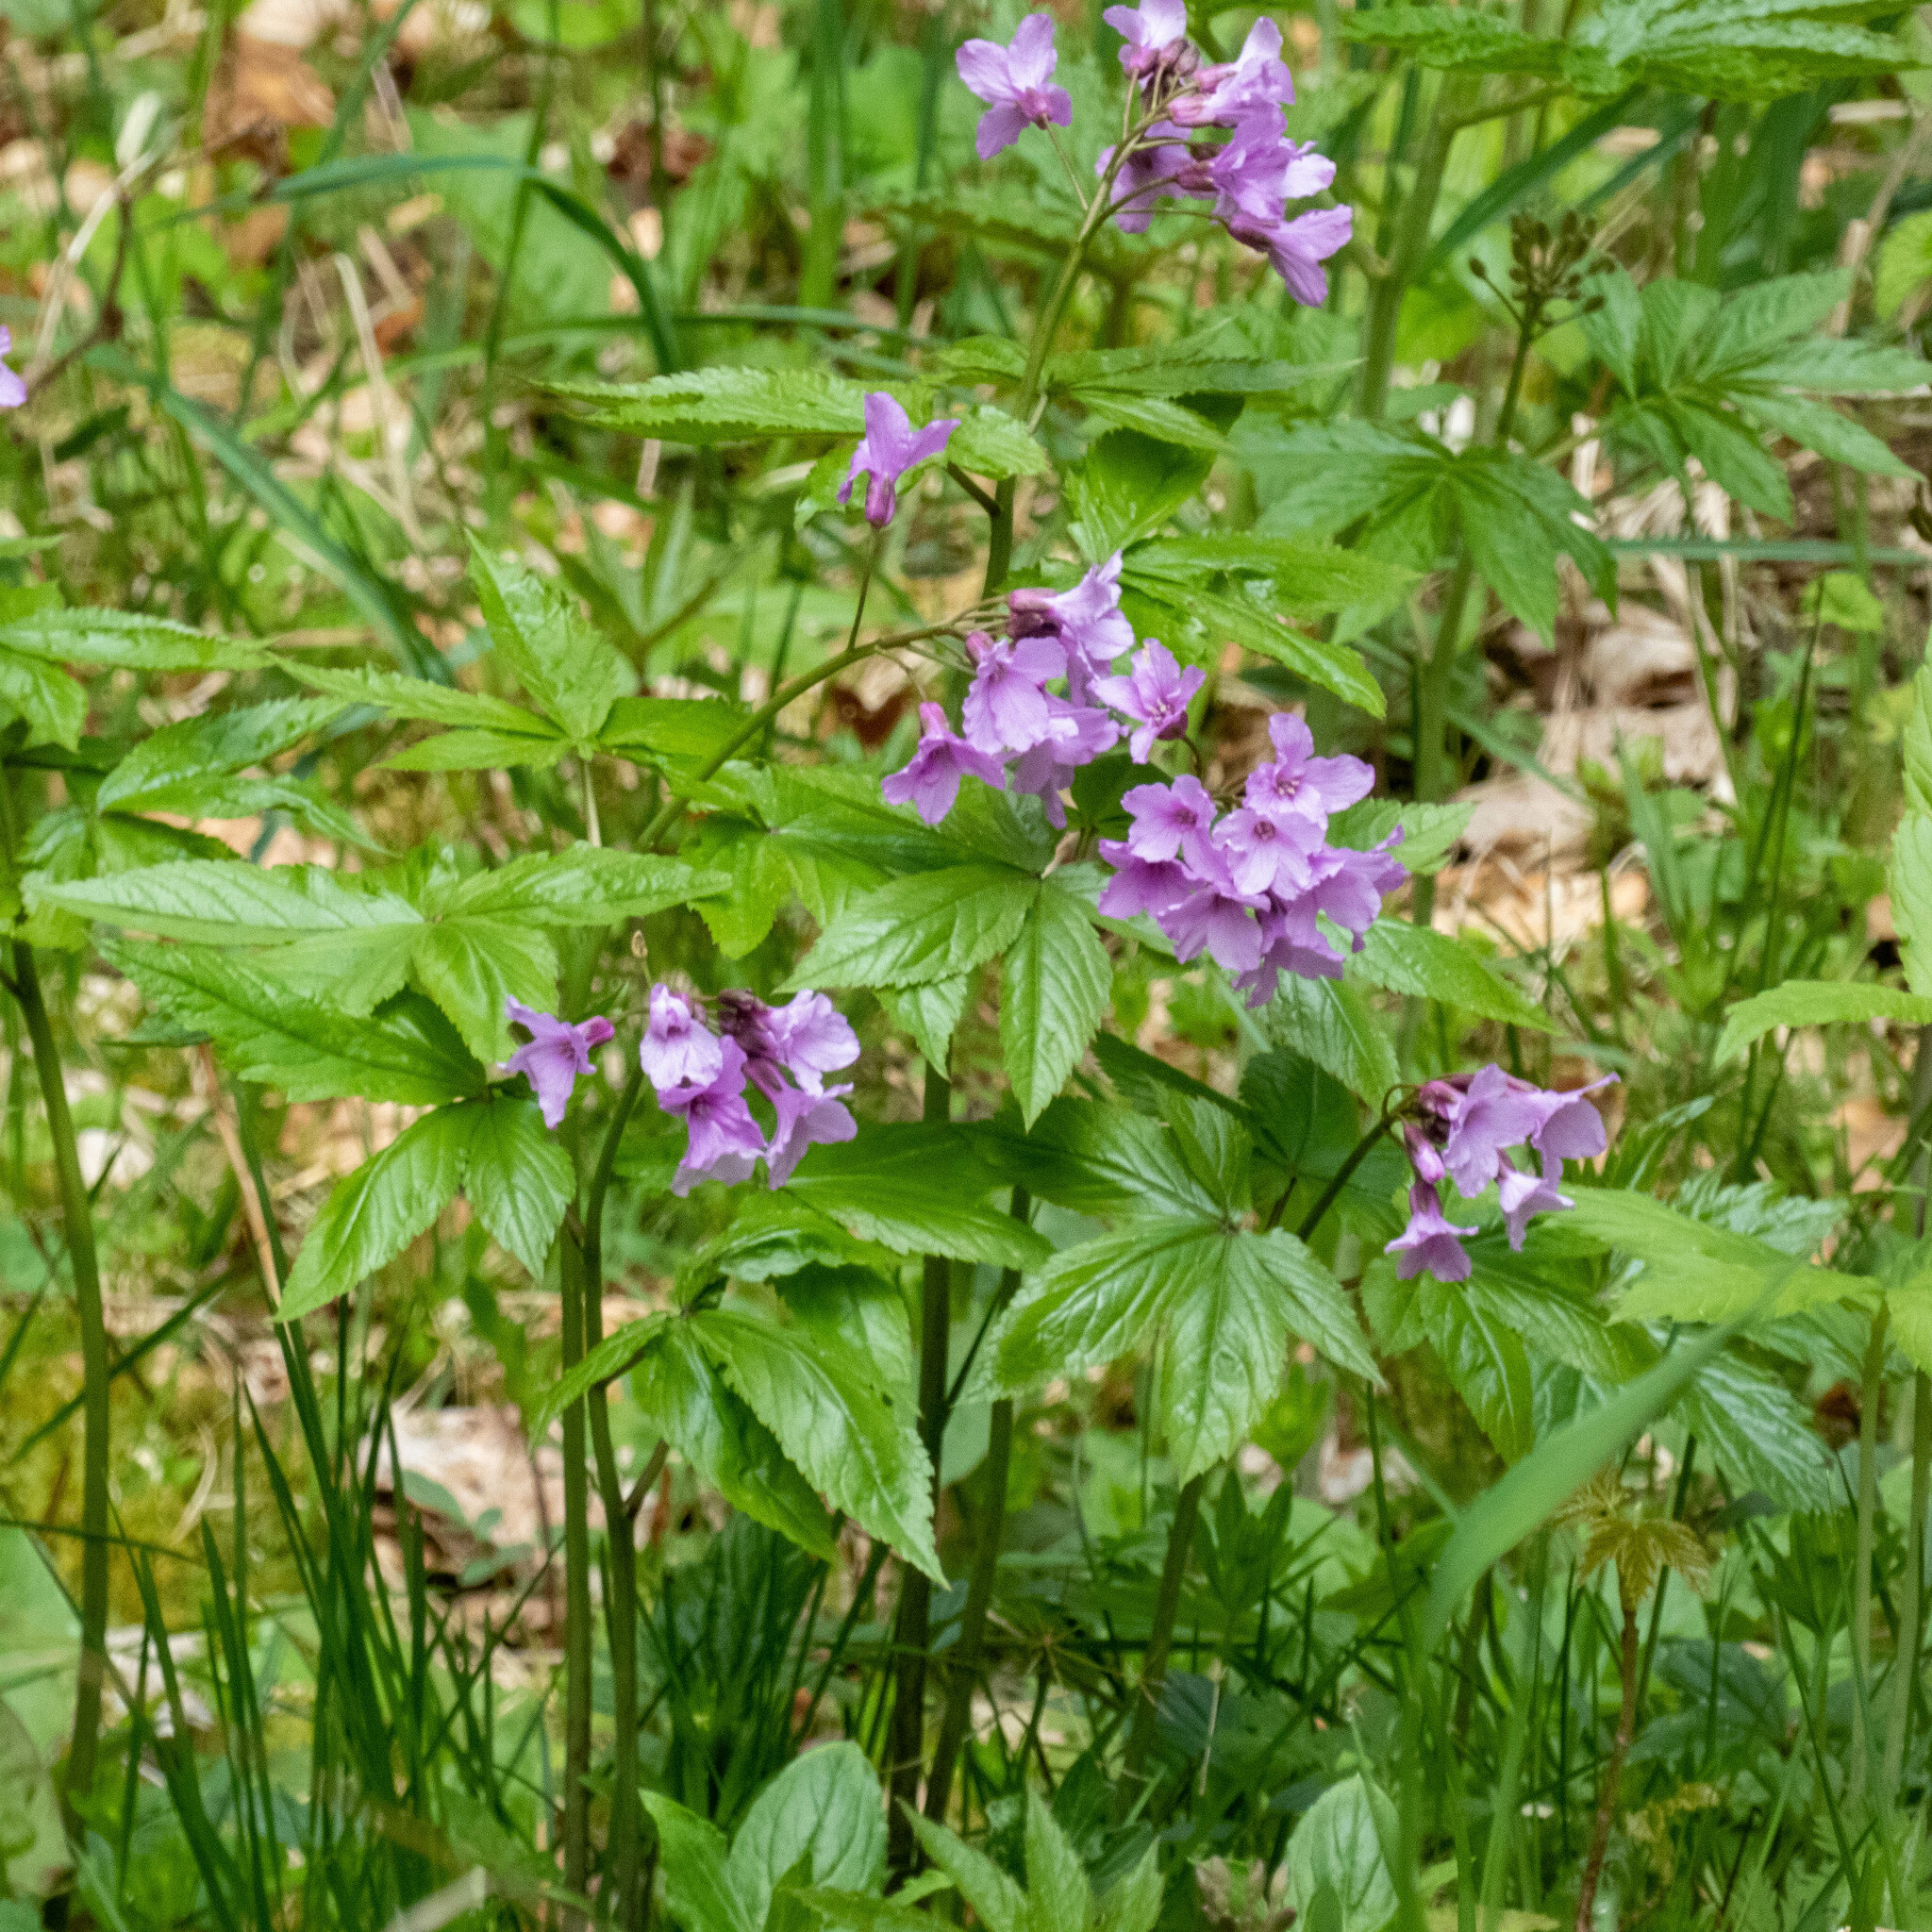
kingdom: Plantae
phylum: Tracheophyta
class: Magnoliopsida
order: Brassicales
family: Brassicaceae
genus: Cardamine
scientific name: Cardamine pentaphyllos
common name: Five-leaflet bitter-cress
